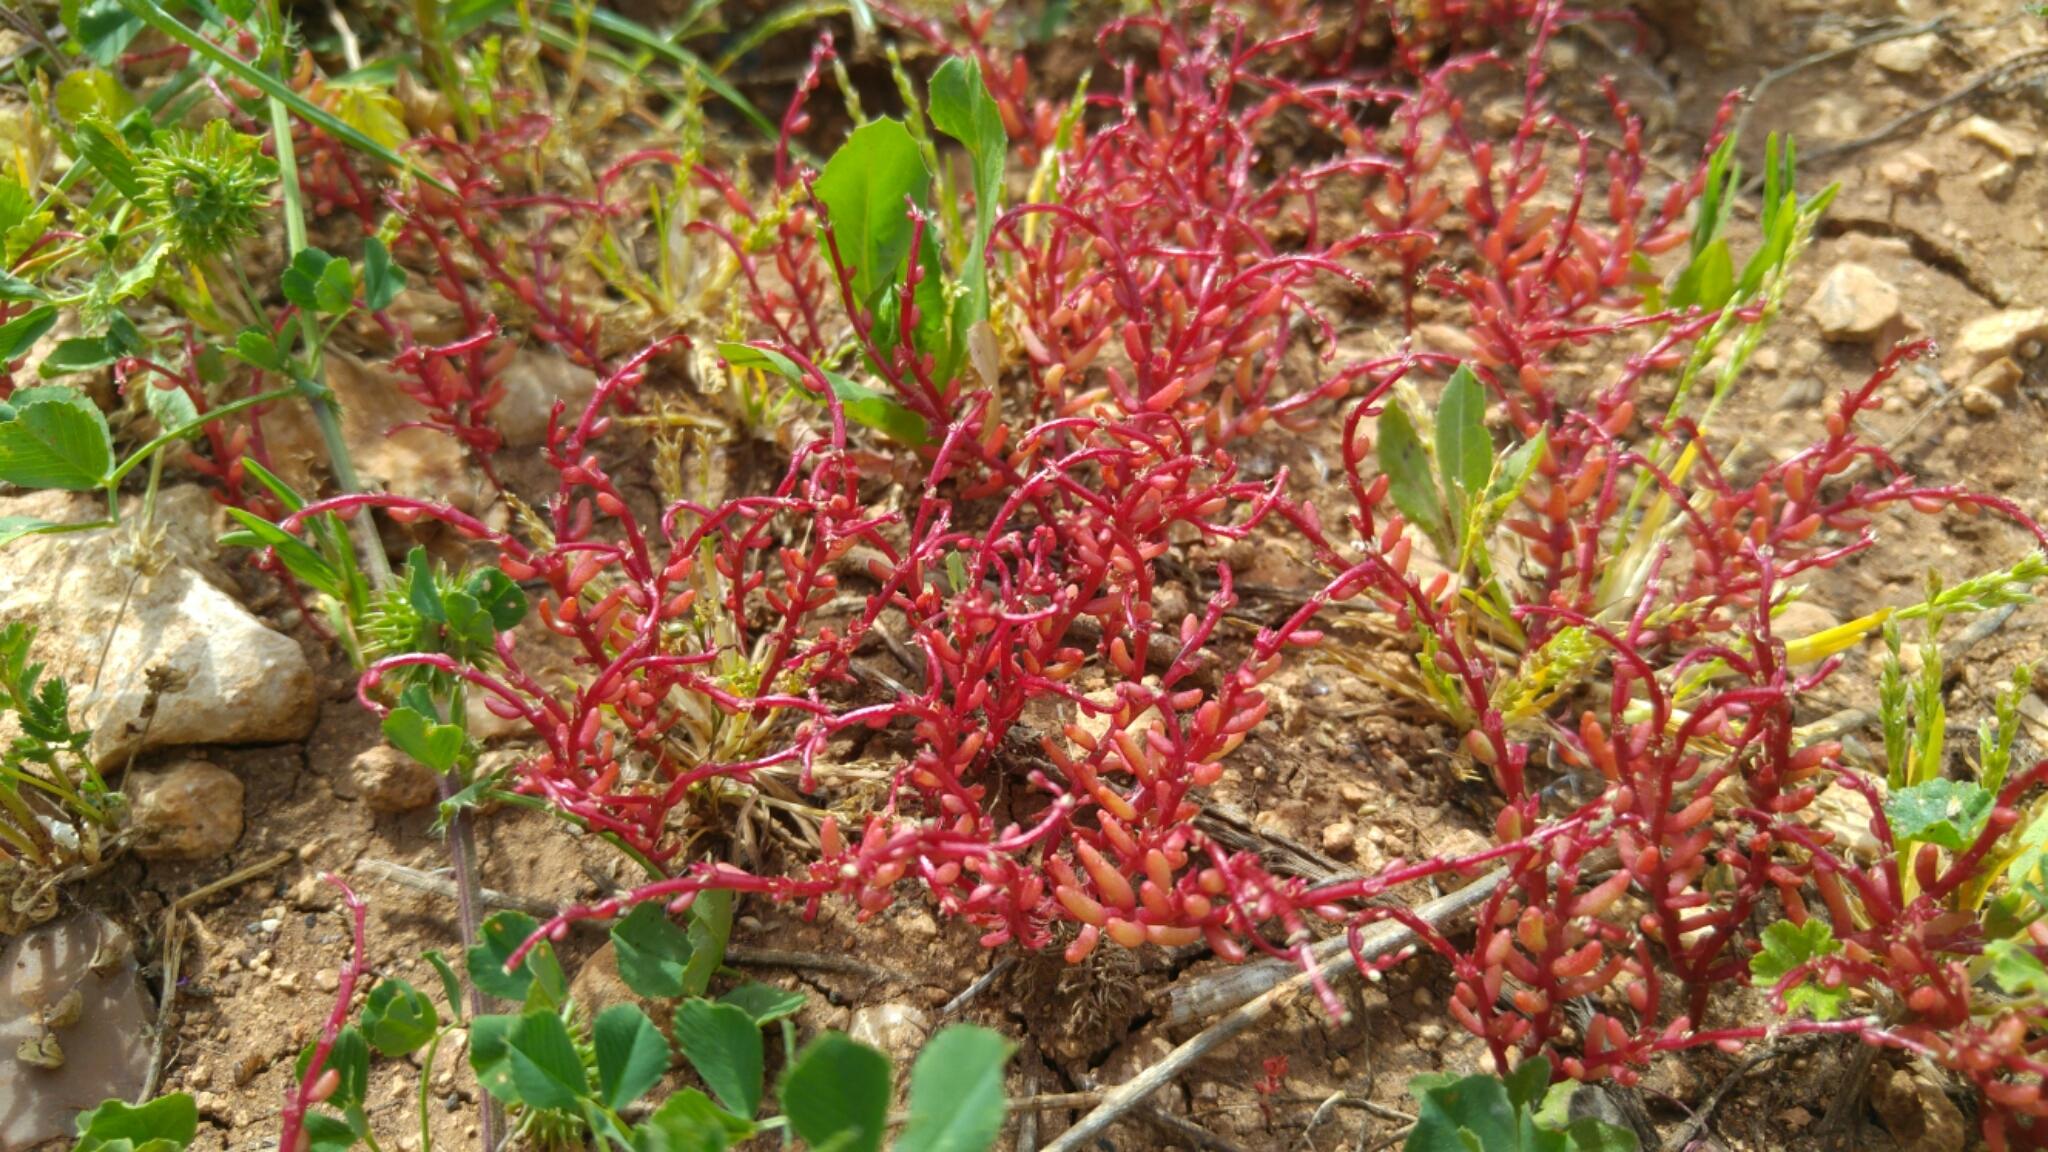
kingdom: Plantae
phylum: Tracheophyta
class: Magnoliopsida
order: Saxifragales
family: Crassulaceae
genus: Sedum
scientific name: Sedum microcarpum
